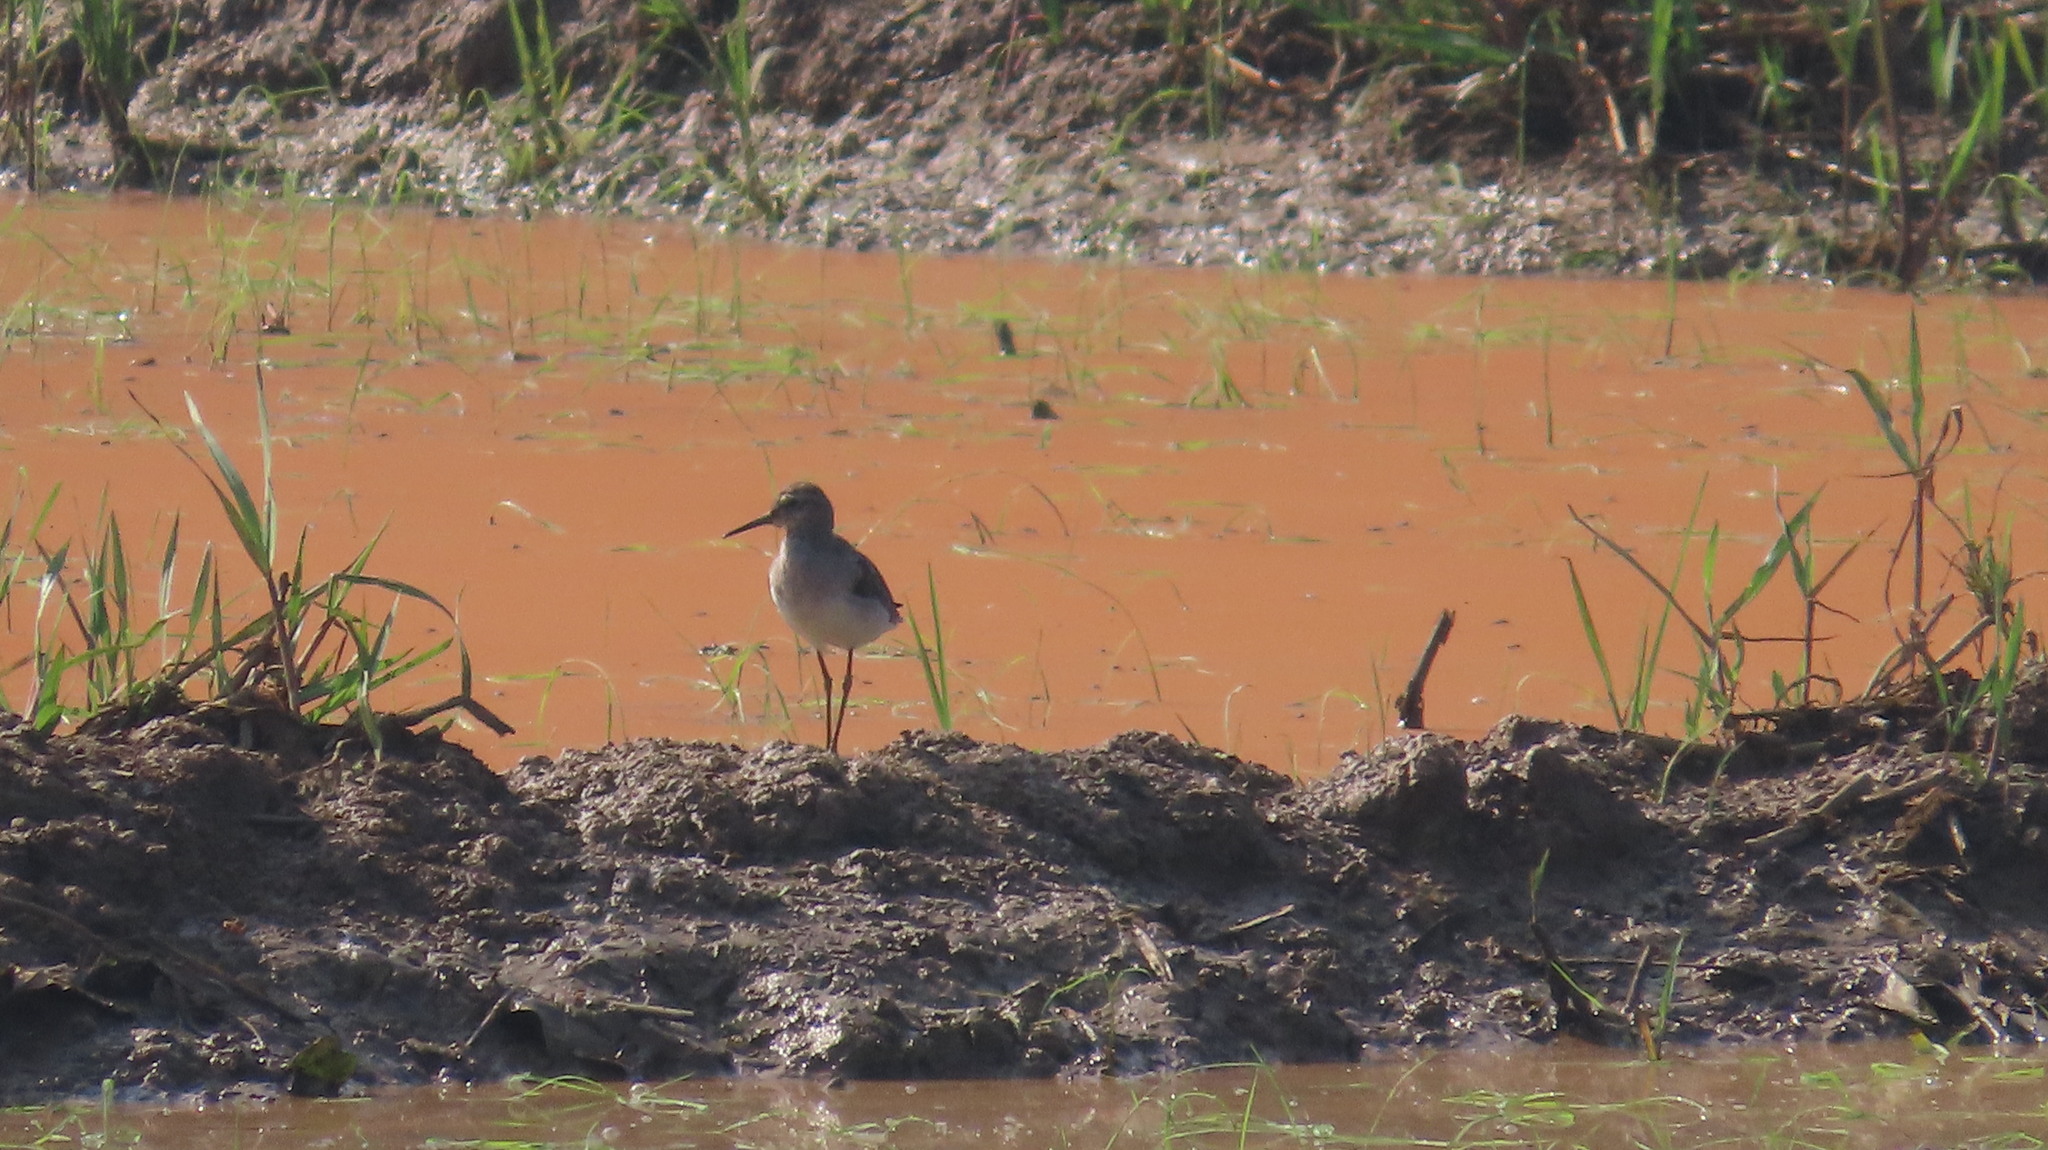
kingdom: Animalia
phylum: Chordata
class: Aves
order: Charadriiformes
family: Scolopacidae
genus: Tringa
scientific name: Tringa glareola
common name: Wood sandpiper
